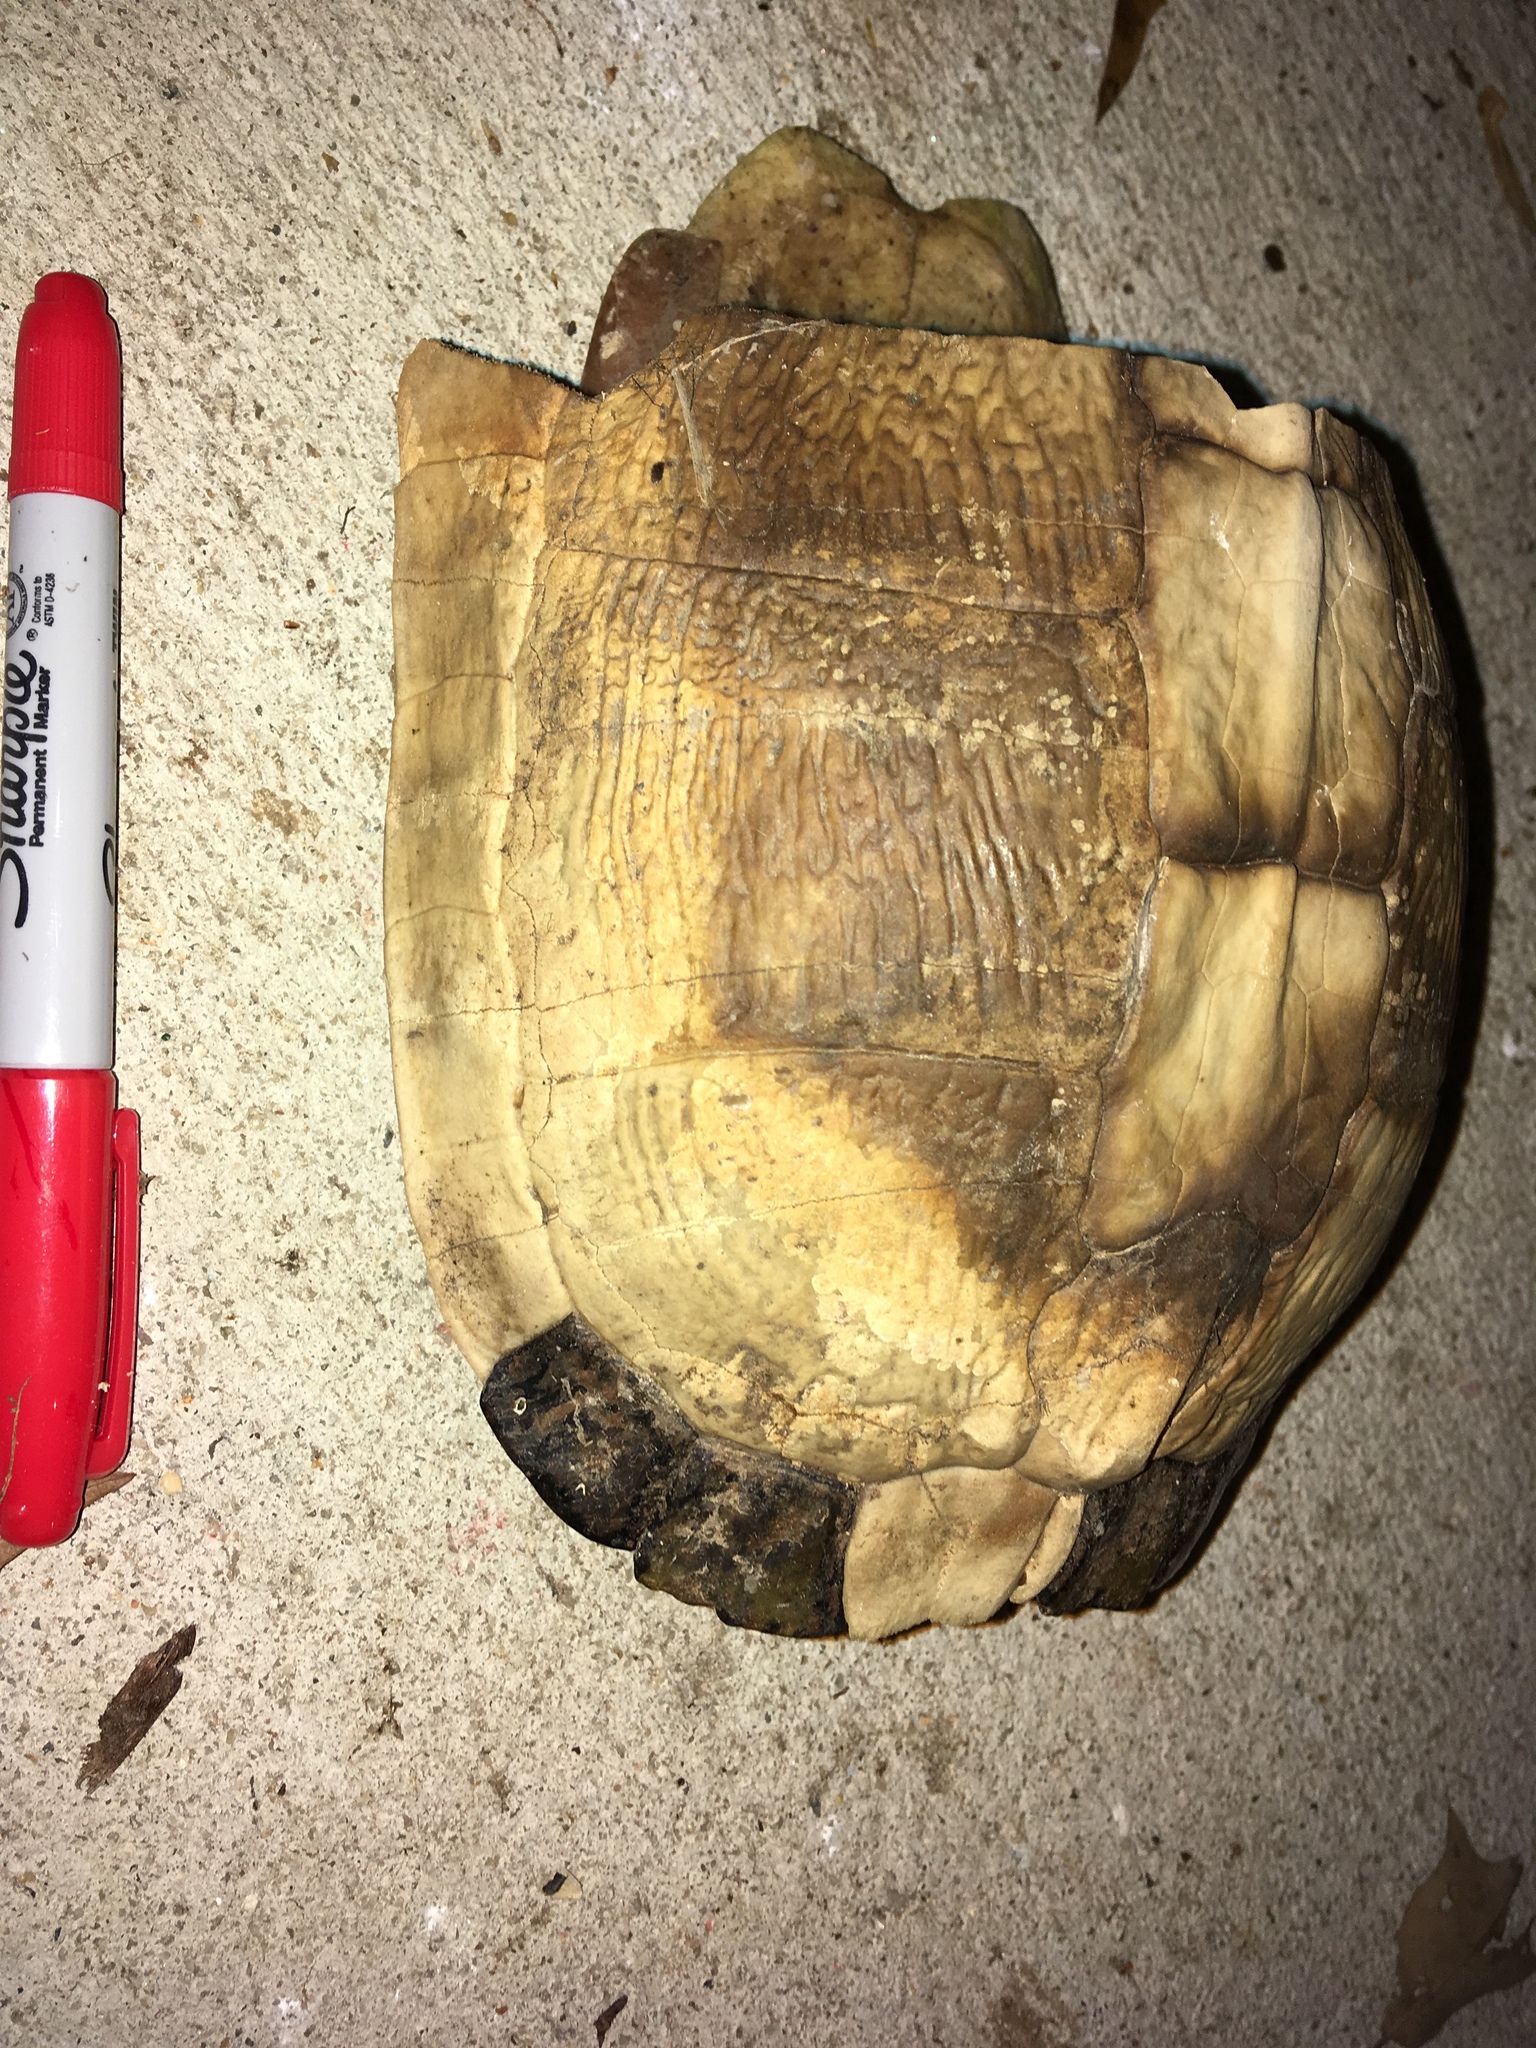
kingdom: Animalia
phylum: Chordata
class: Testudines
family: Emydidae
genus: Terrapene
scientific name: Terrapene carolina
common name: Common box turtle
